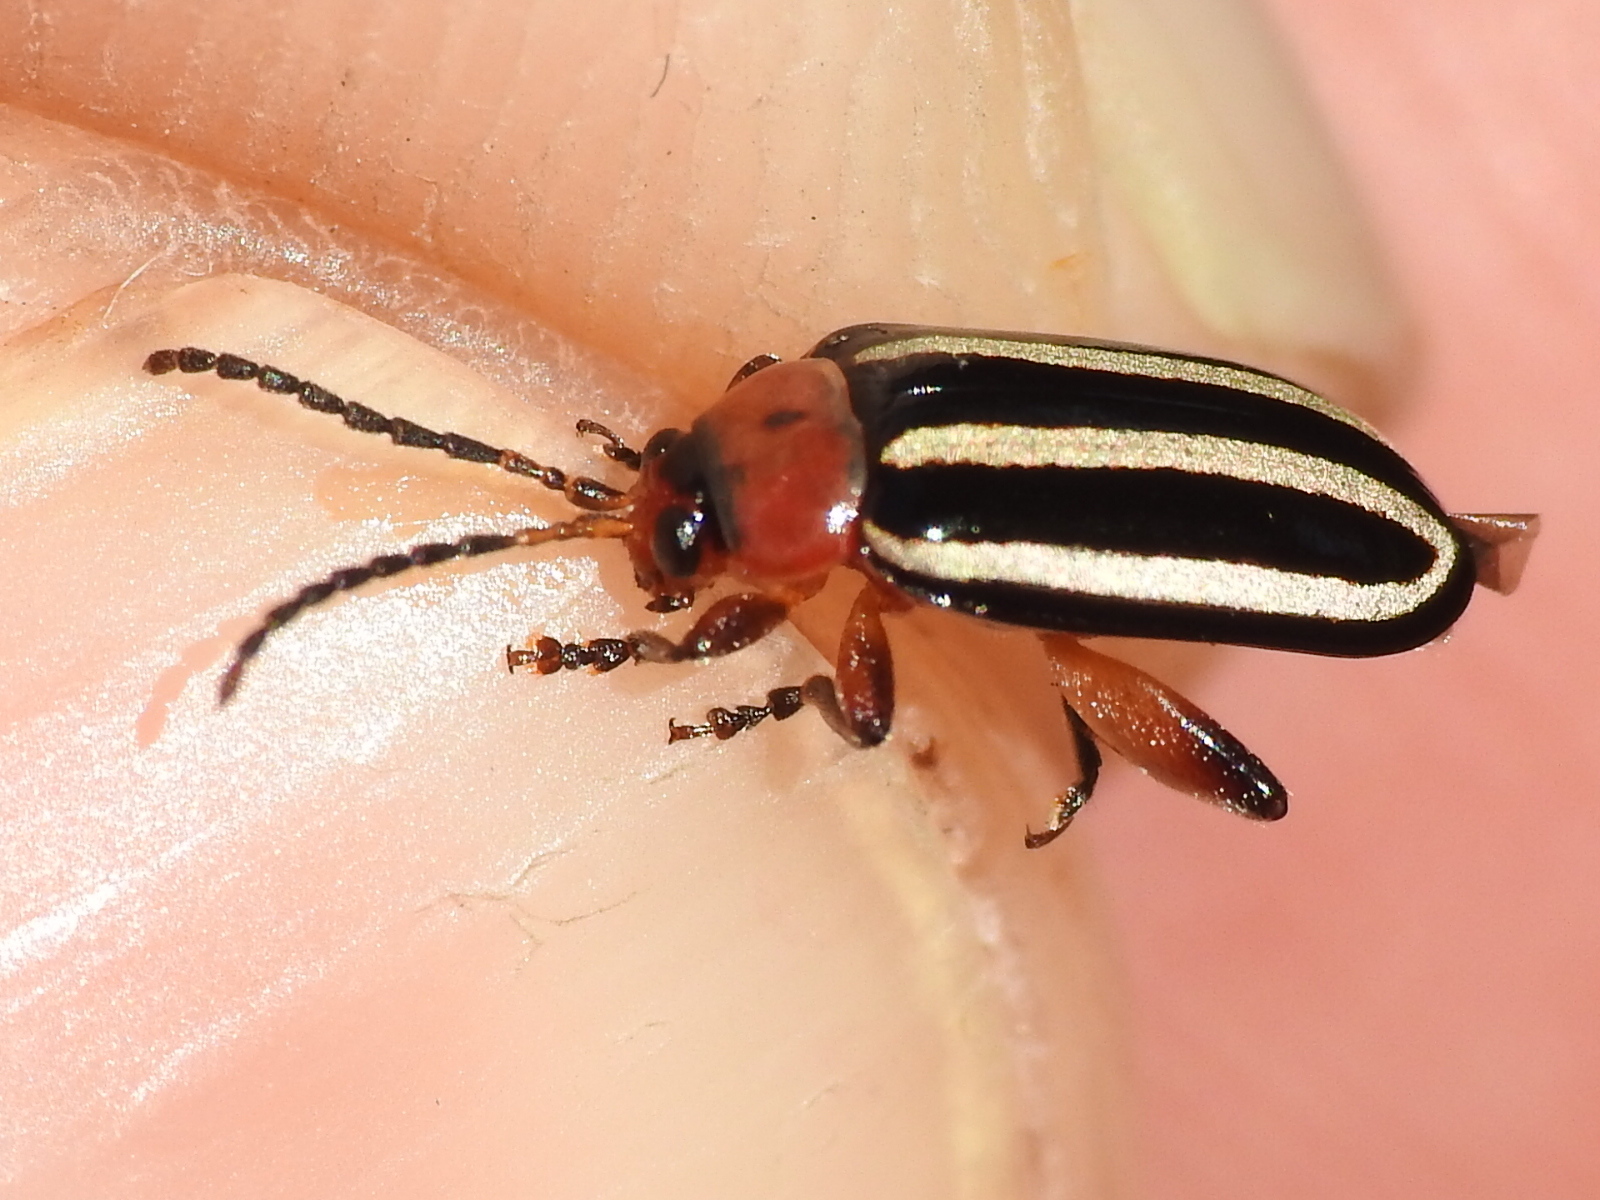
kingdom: Animalia
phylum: Arthropoda
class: Insecta
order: Coleoptera
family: Chrysomelidae
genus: Disonycha
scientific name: Disonycha glabrata
